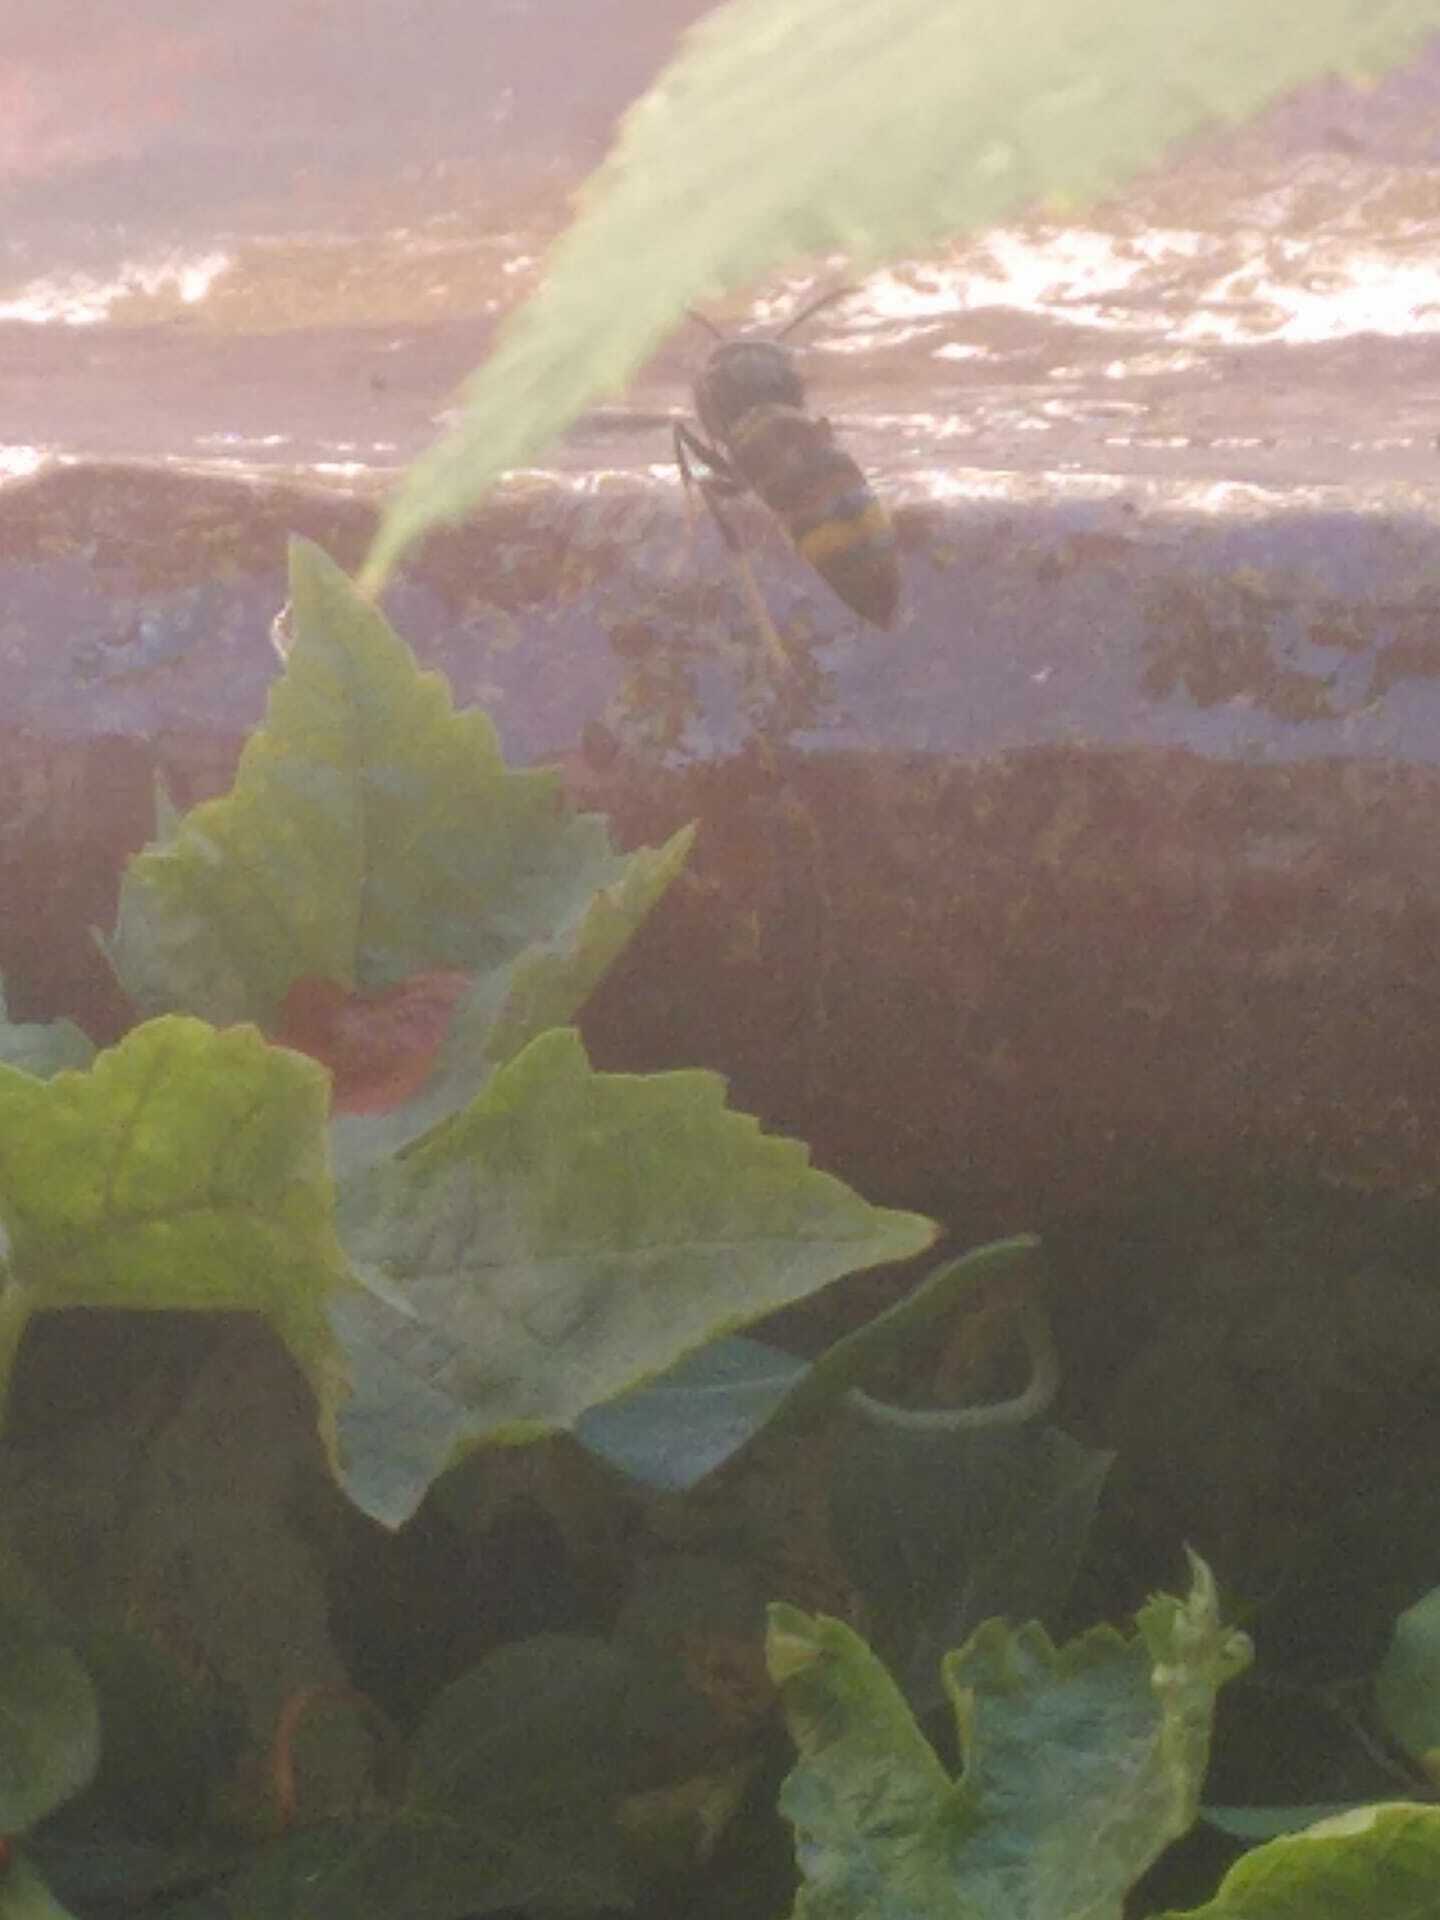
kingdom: Animalia
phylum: Arthropoda
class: Insecta
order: Hymenoptera
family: Vespidae
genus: Vespa
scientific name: Vespa velutina
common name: Asian hornet
